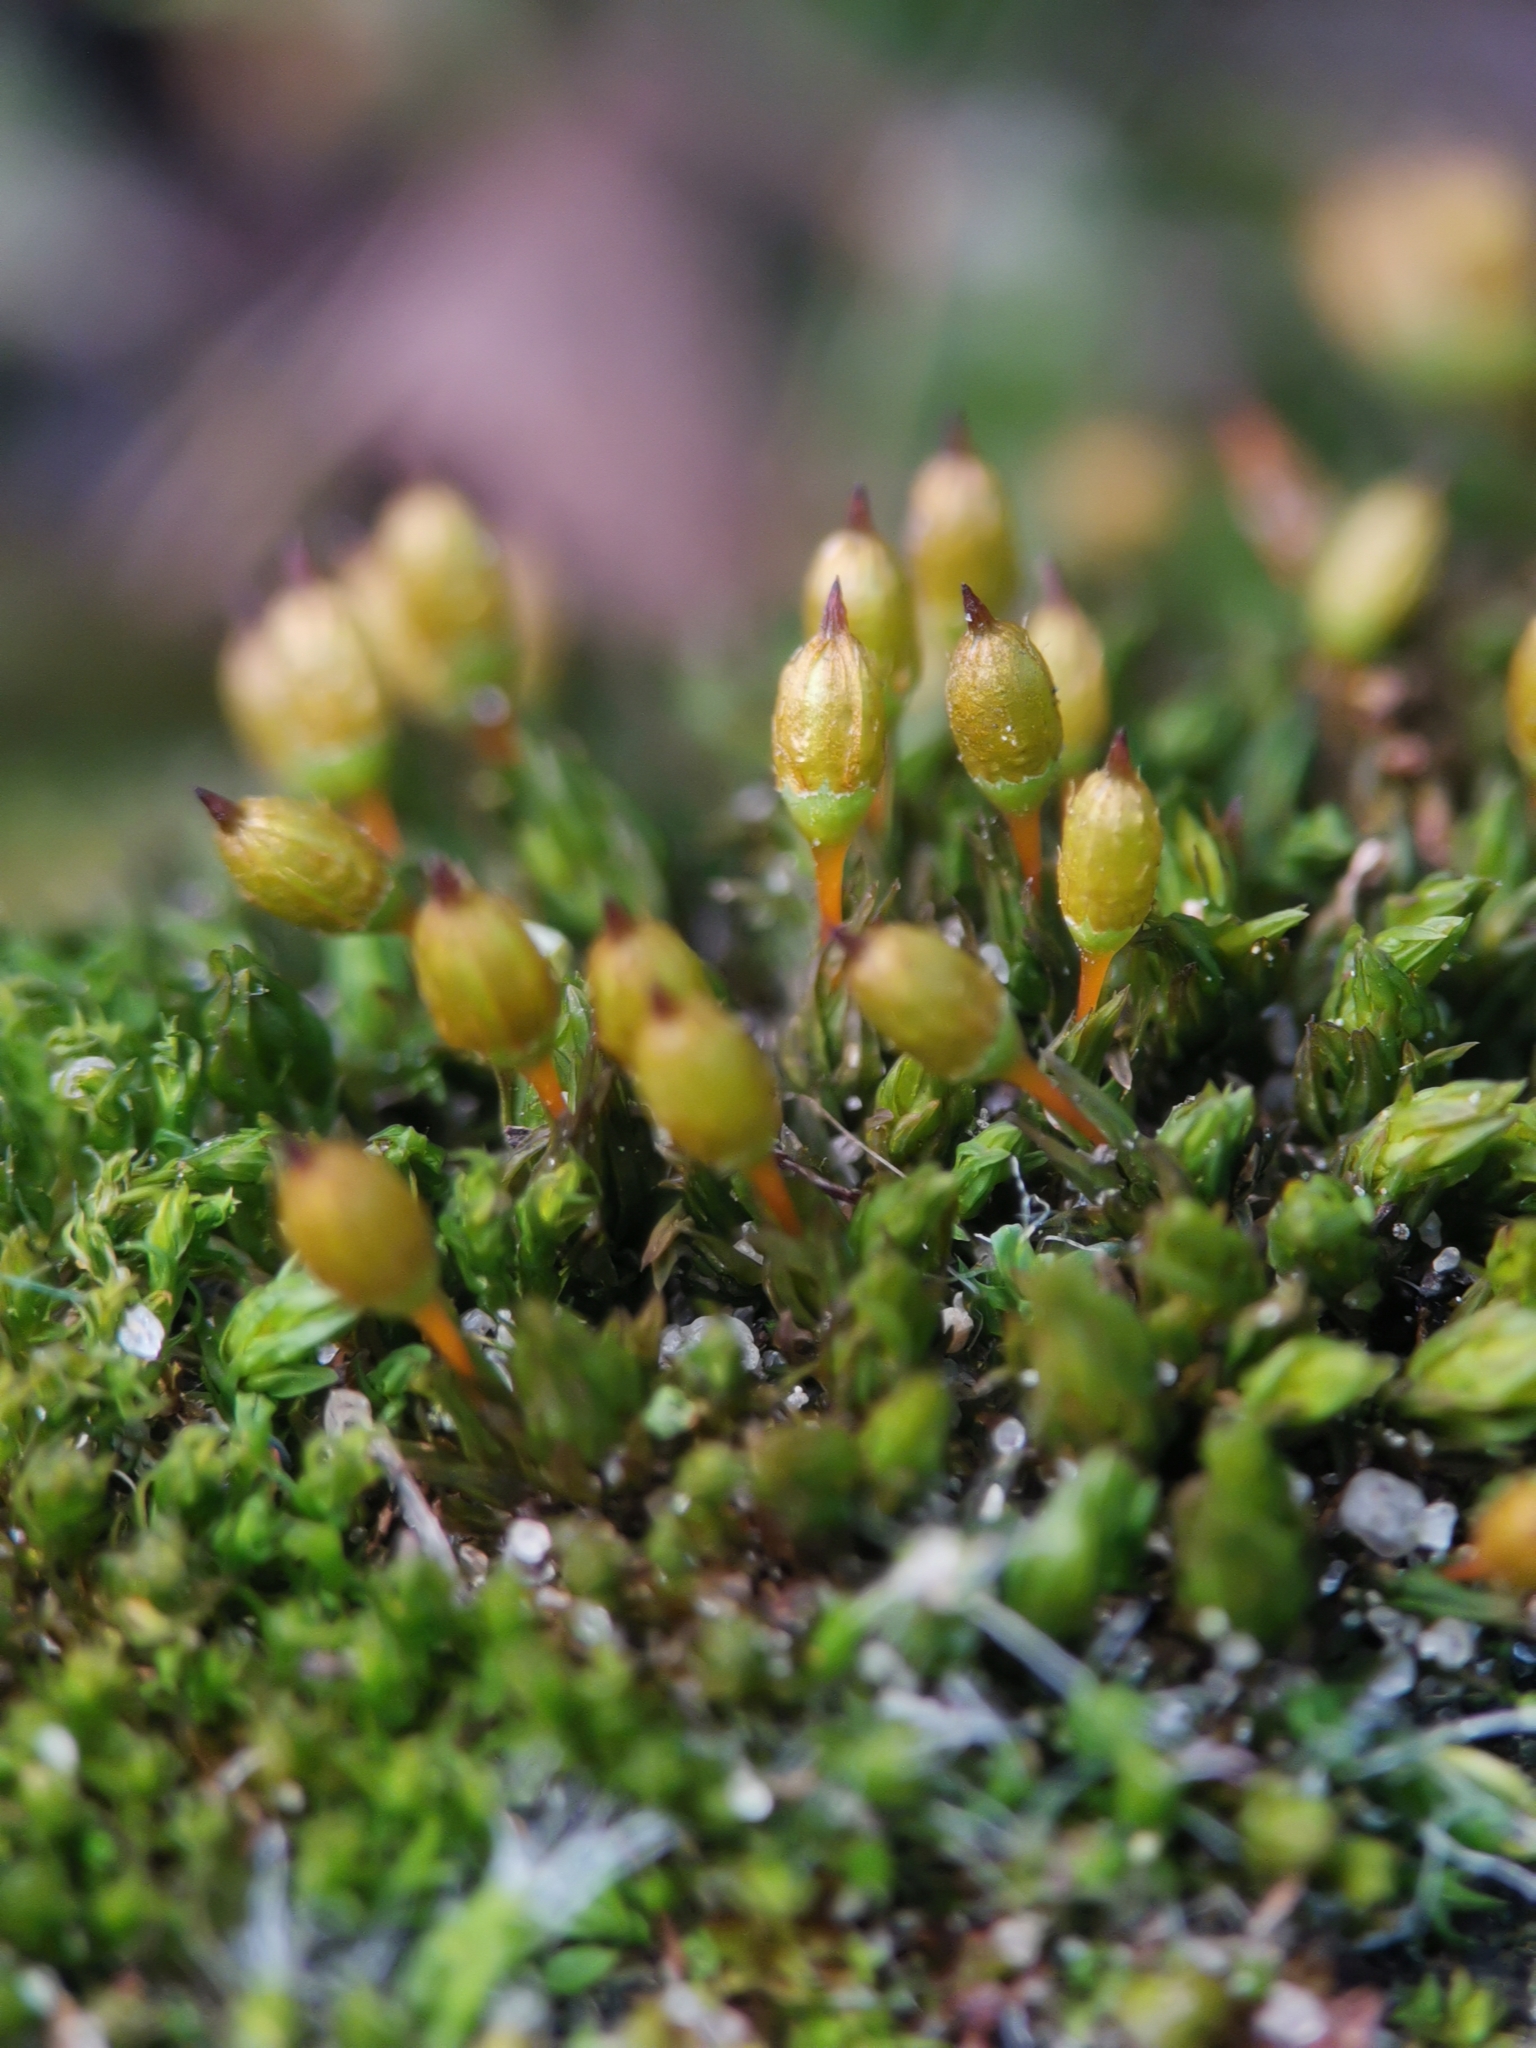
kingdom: Plantae
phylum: Bryophyta
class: Bryopsida
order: Orthotrichales
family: Orthotrichaceae
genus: Orthotrichum
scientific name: Orthotrichum anomalum
